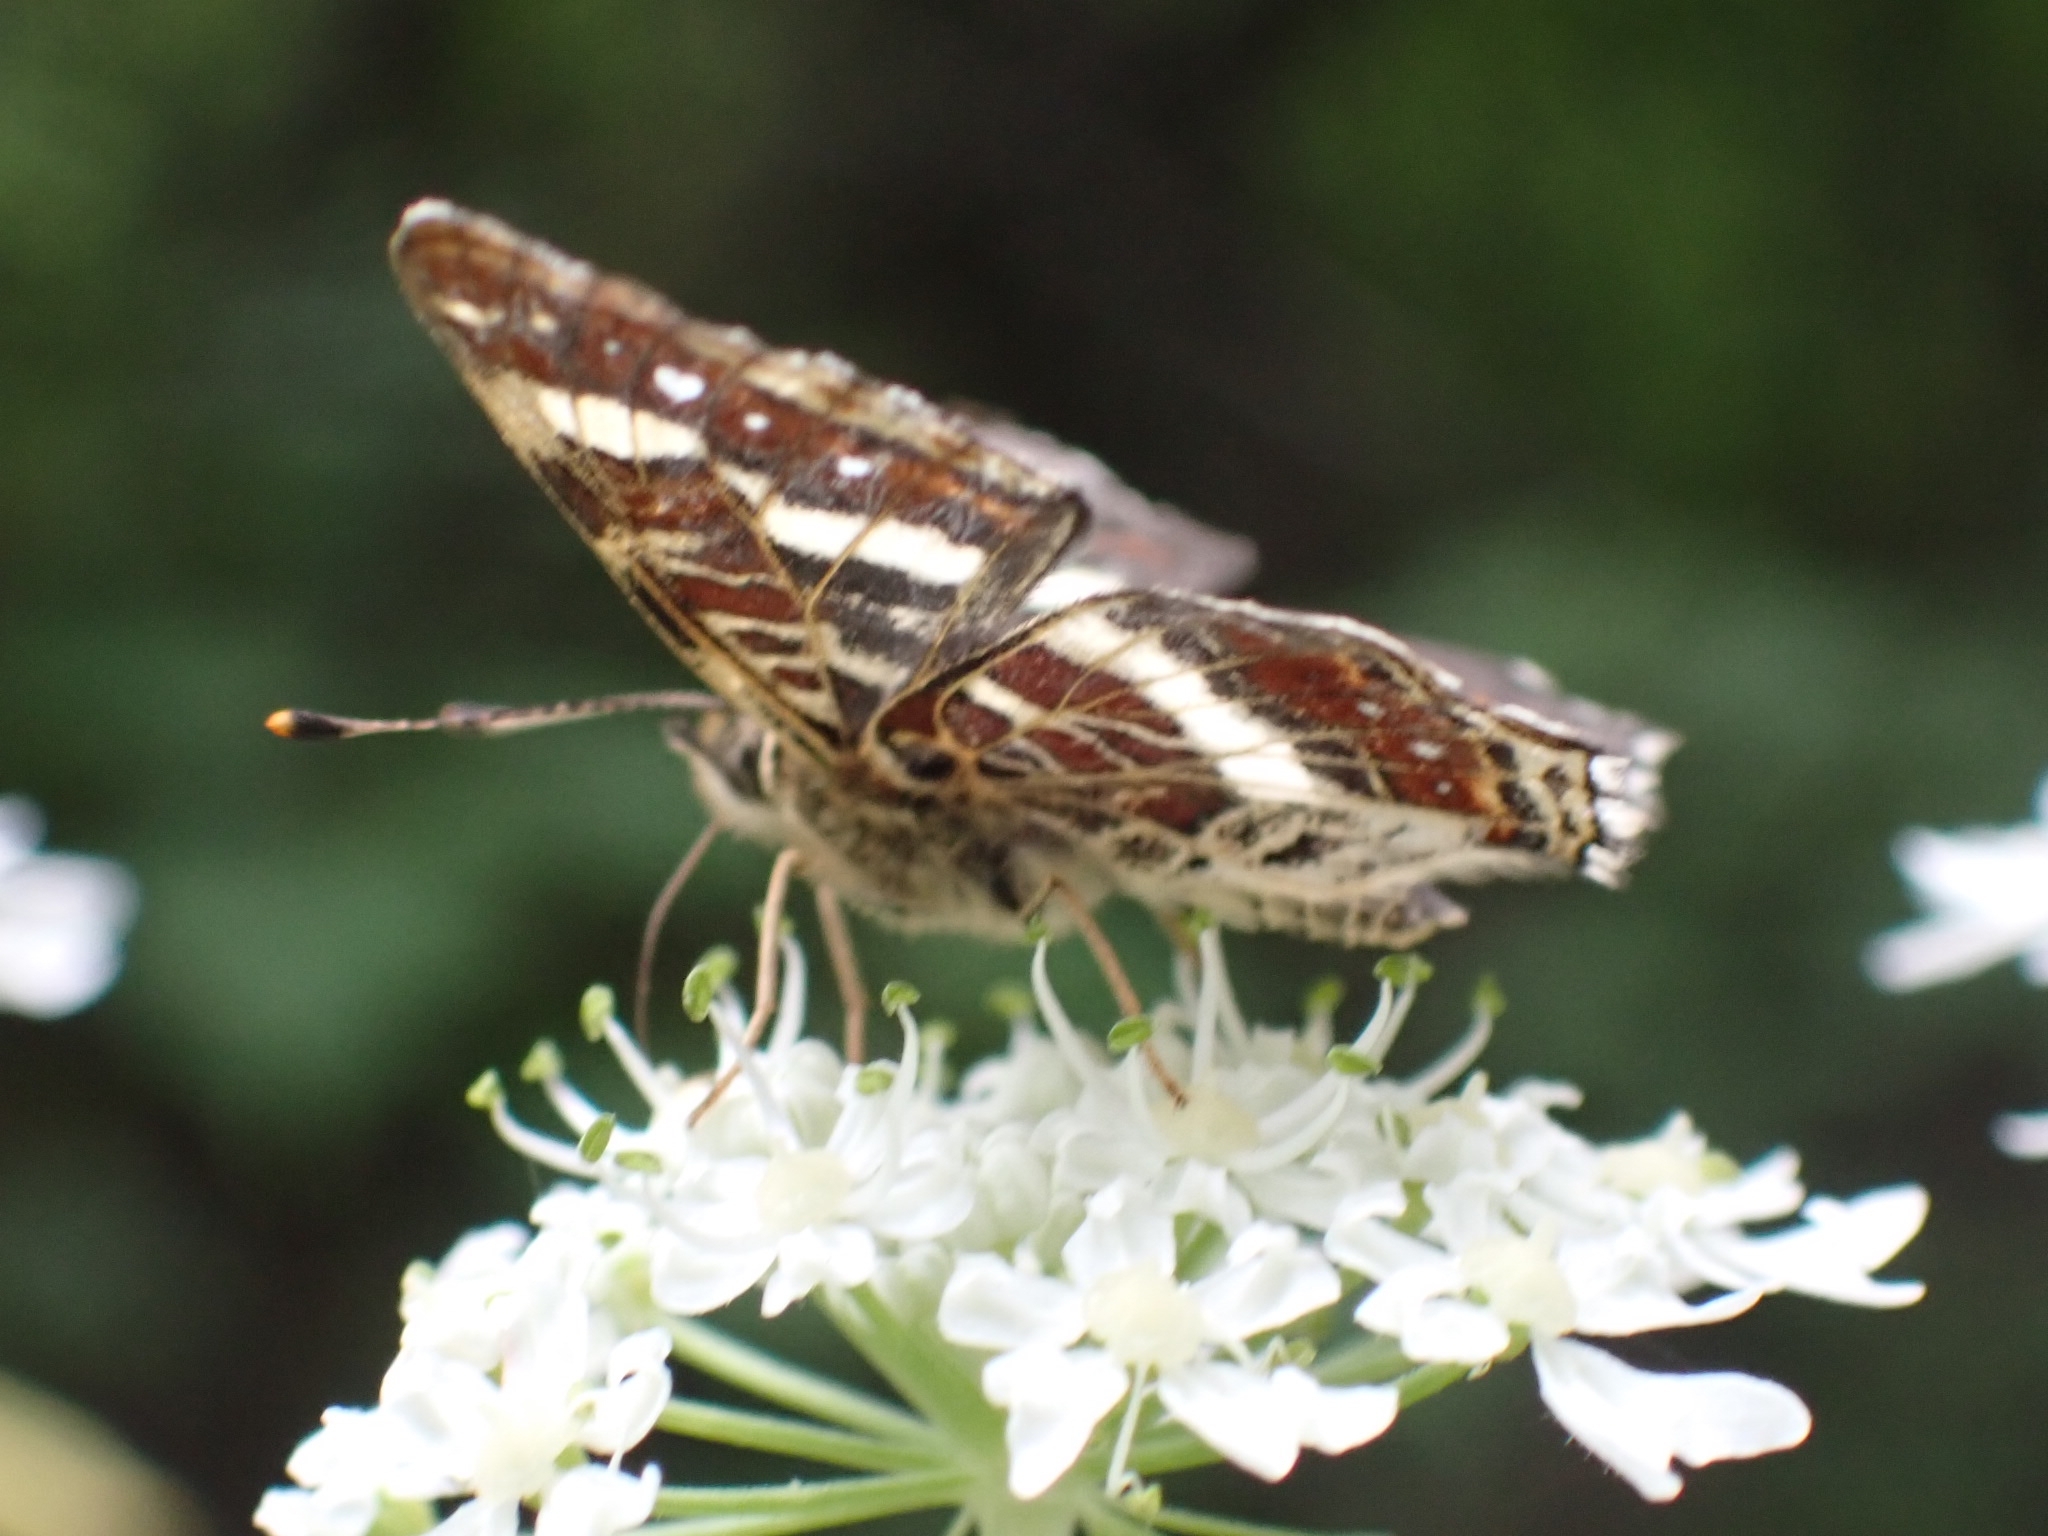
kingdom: Animalia
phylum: Arthropoda
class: Insecta
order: Lepidoptera
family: Nymphalidae
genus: Araschnia
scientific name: Araschnia levana
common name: Map butterfly
